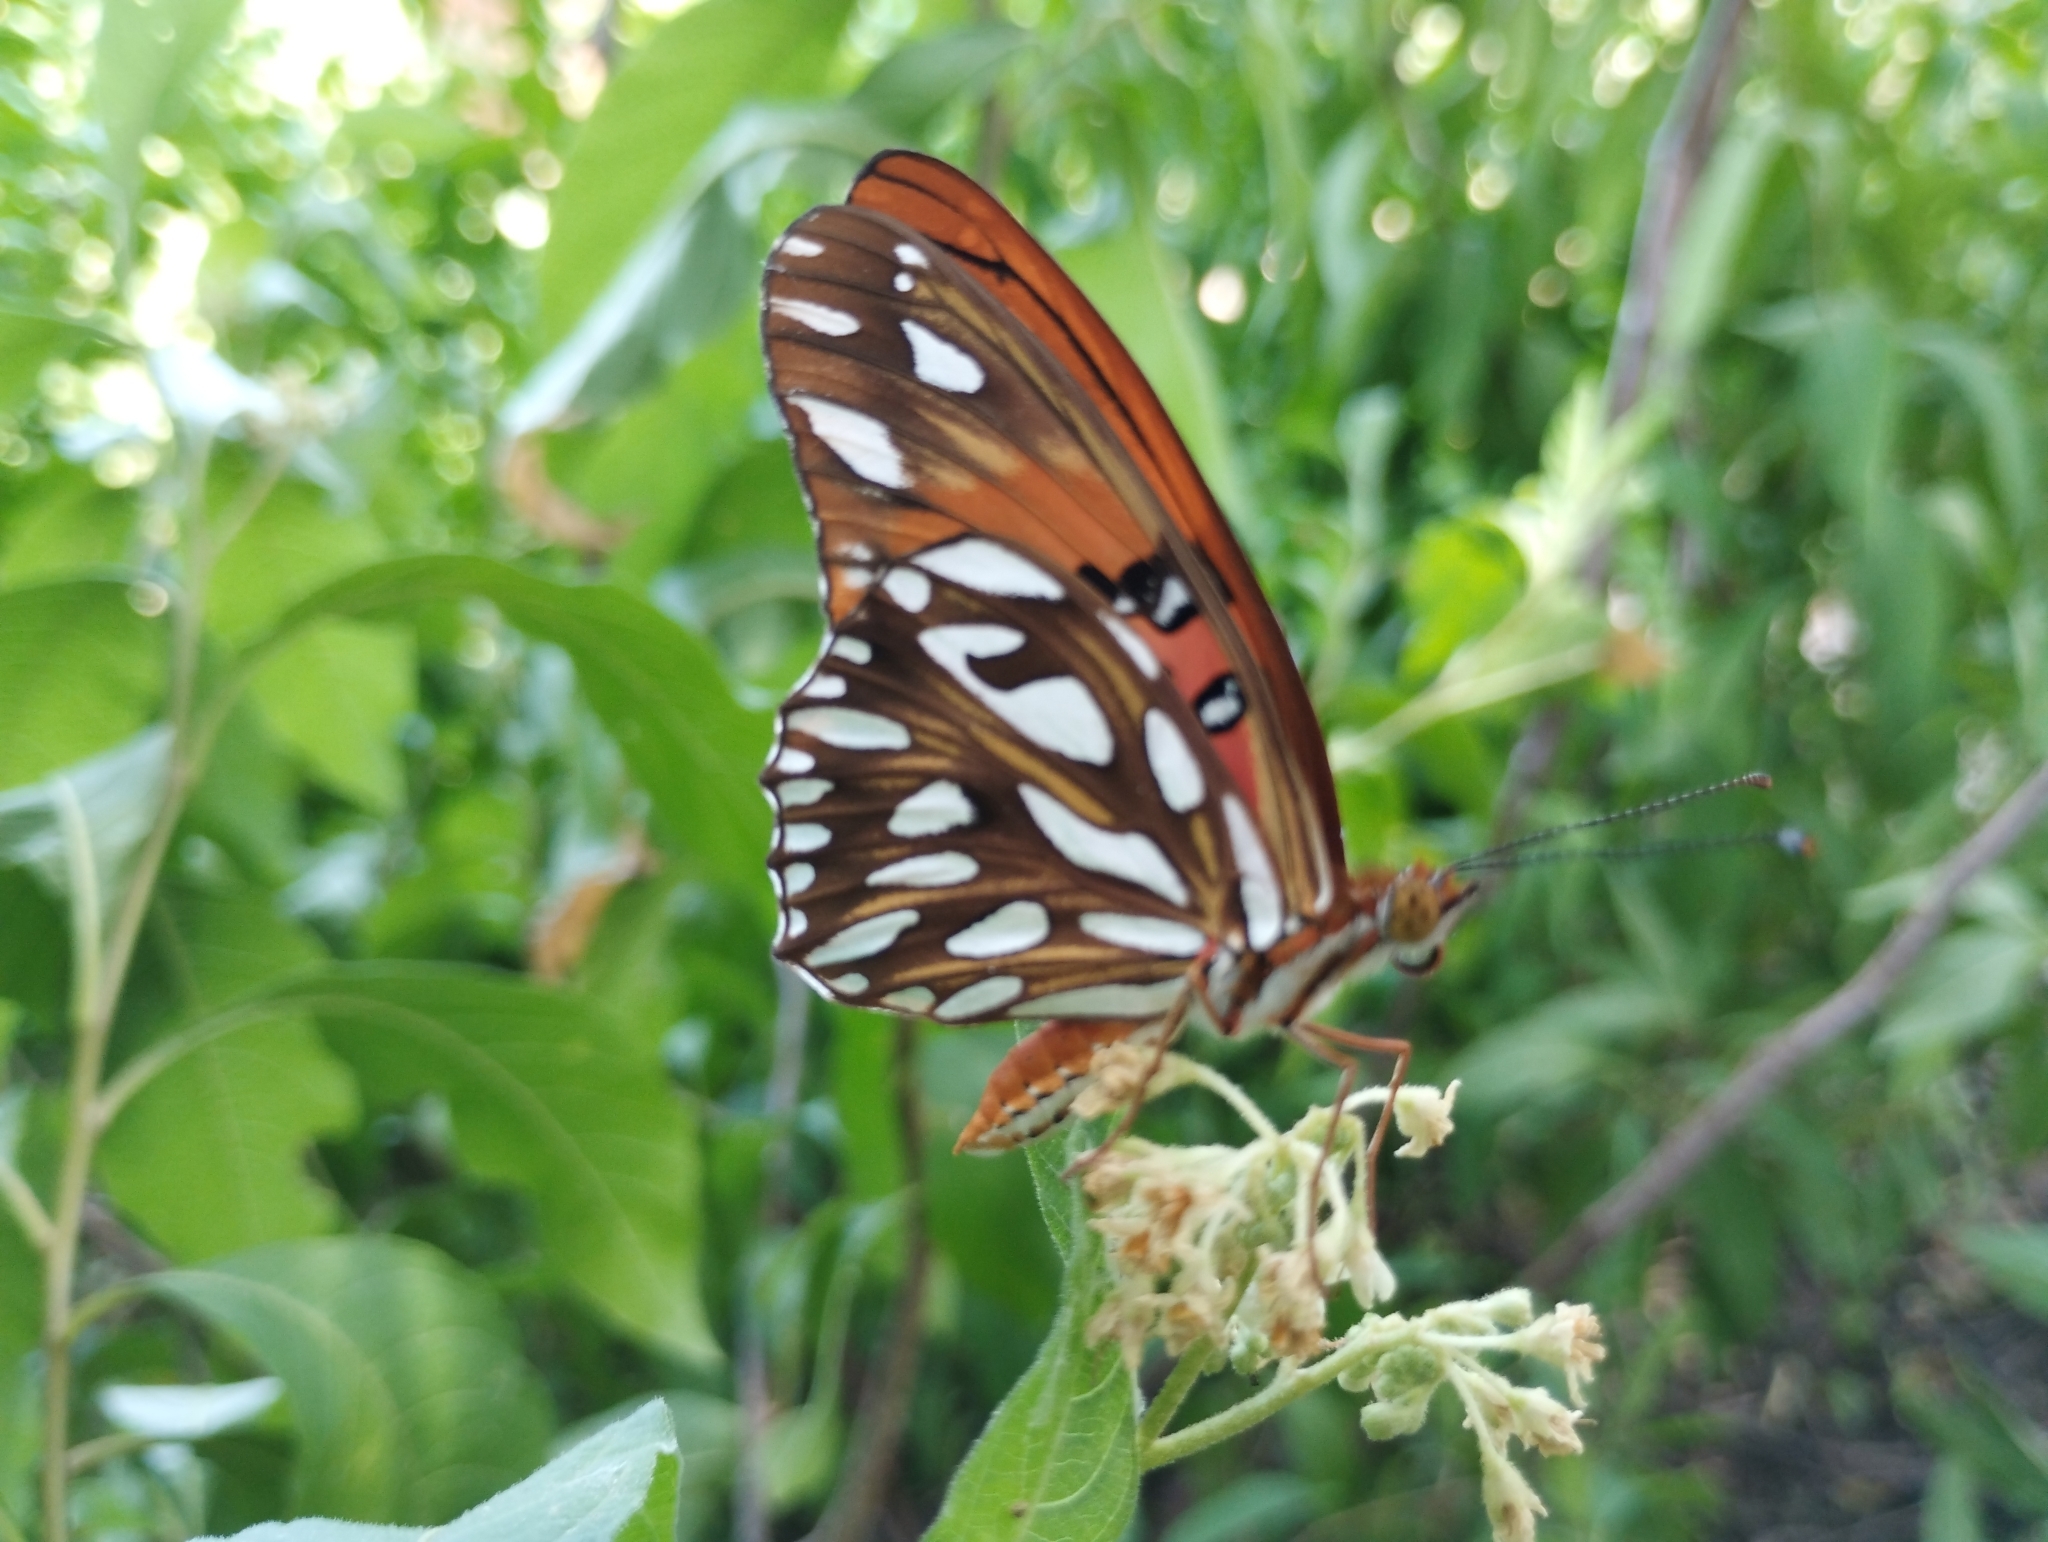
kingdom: Animalia
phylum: Arthropoda
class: Insecta
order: Lepidoptera
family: Nymphalidae
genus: Dione
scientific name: Dione vanillae
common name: Gulf fritillary
